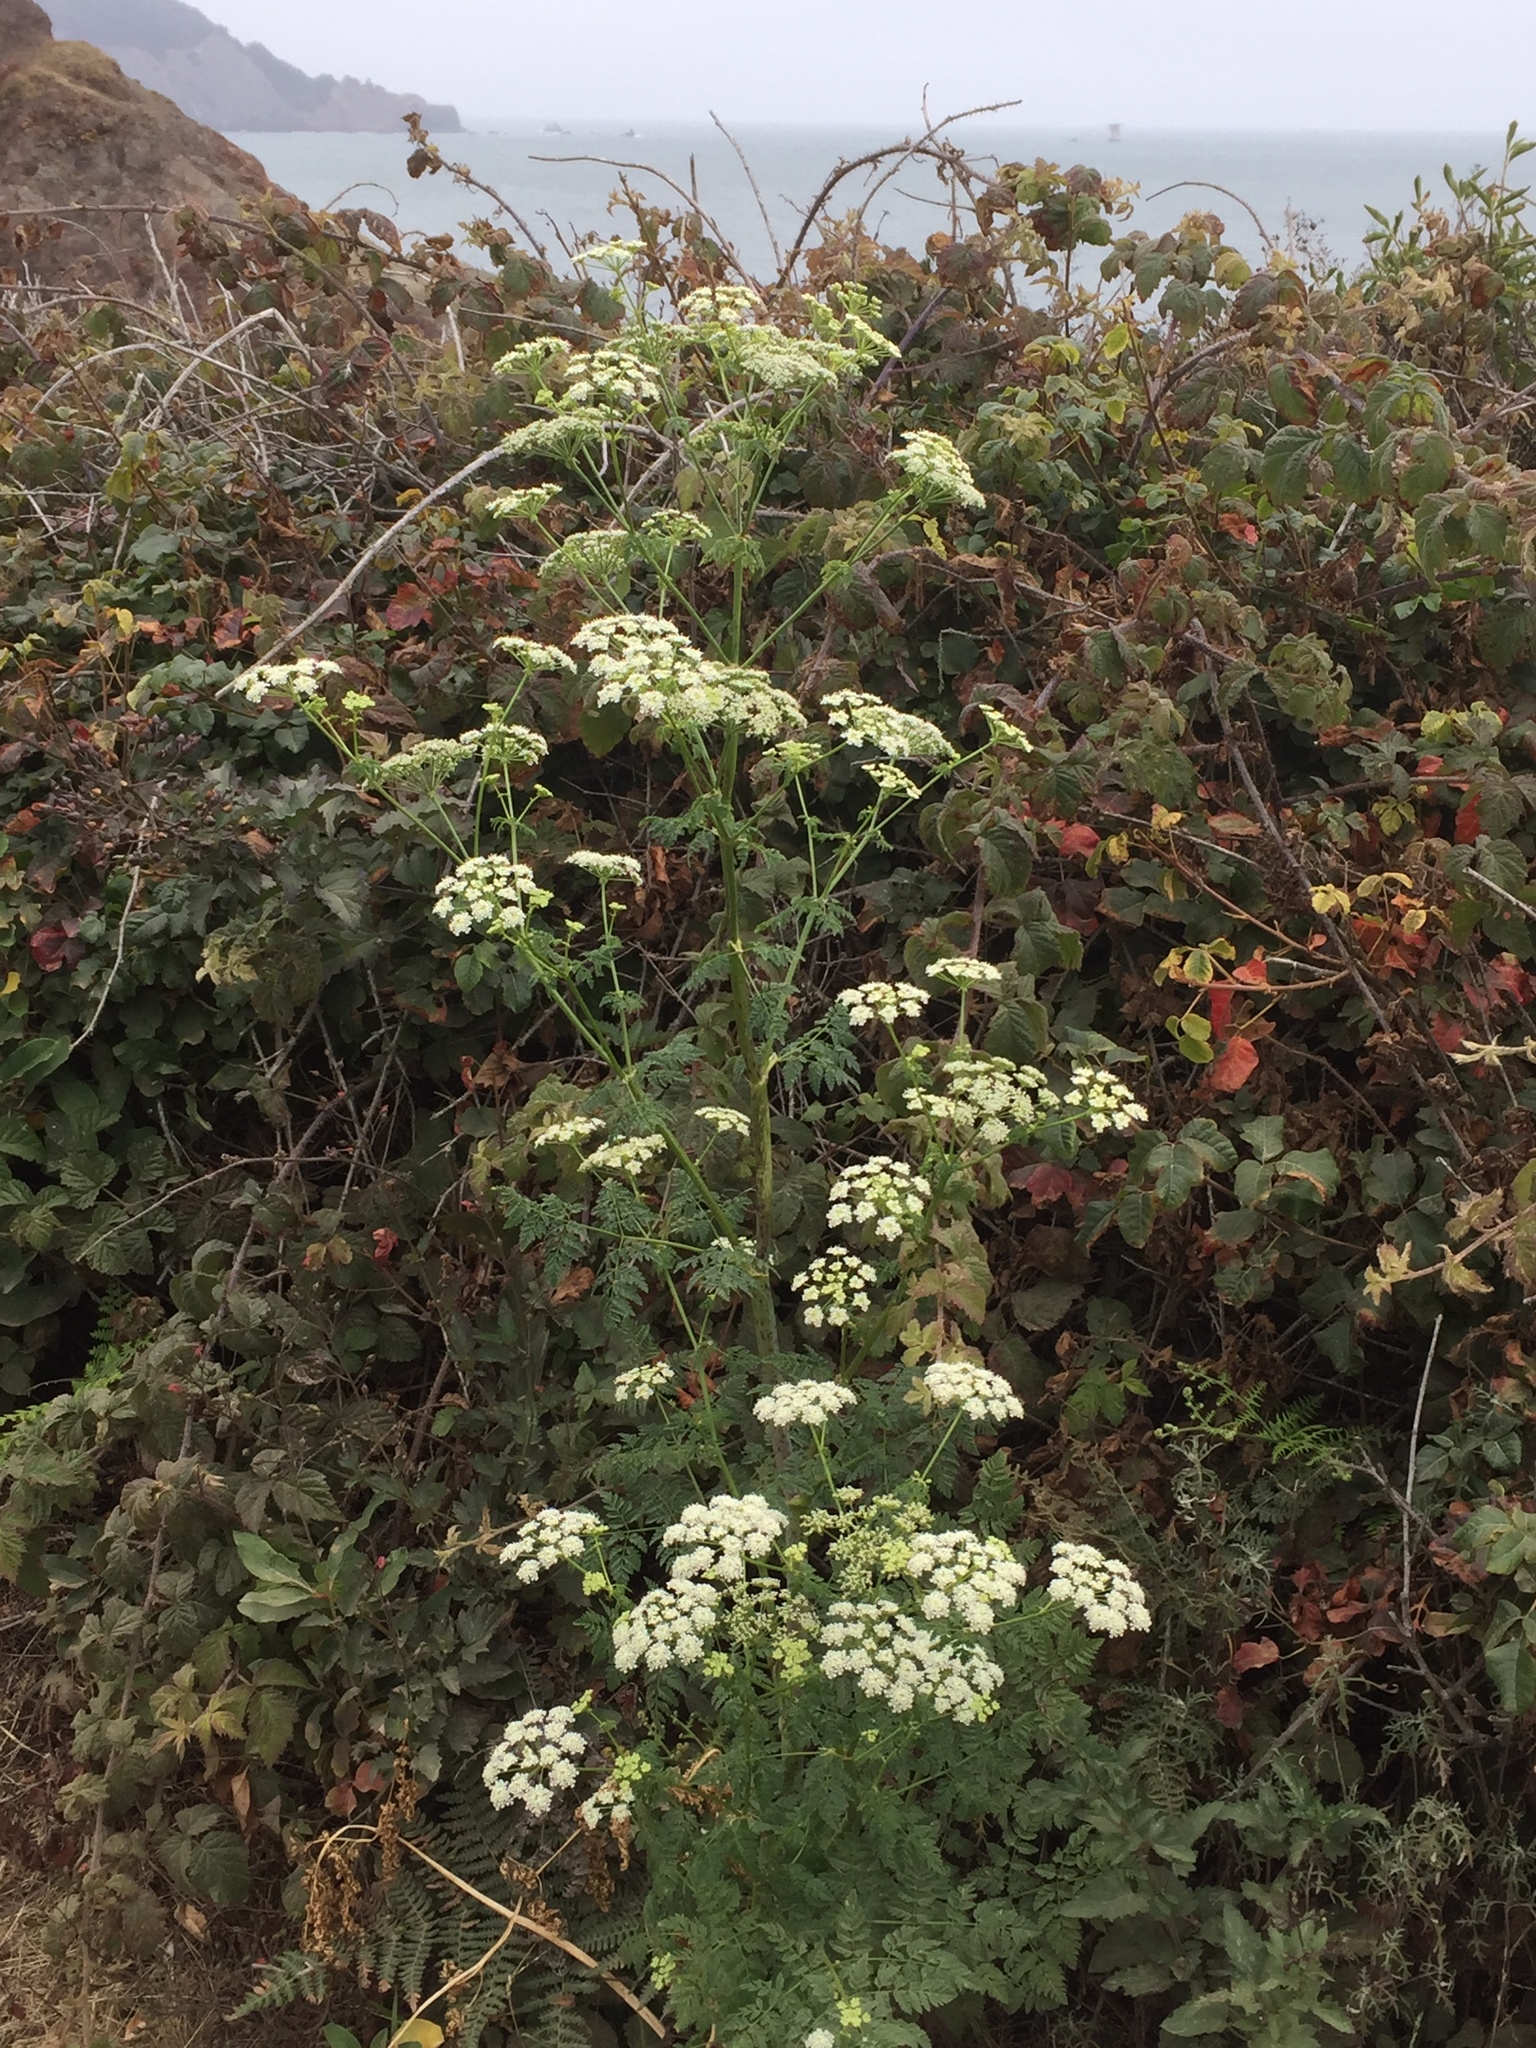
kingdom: Plantae
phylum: Tracheophyta
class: Magnoliopsida
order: Apiales
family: Apiaceae
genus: Conium
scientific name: Conium maculatum
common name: Hemlock
